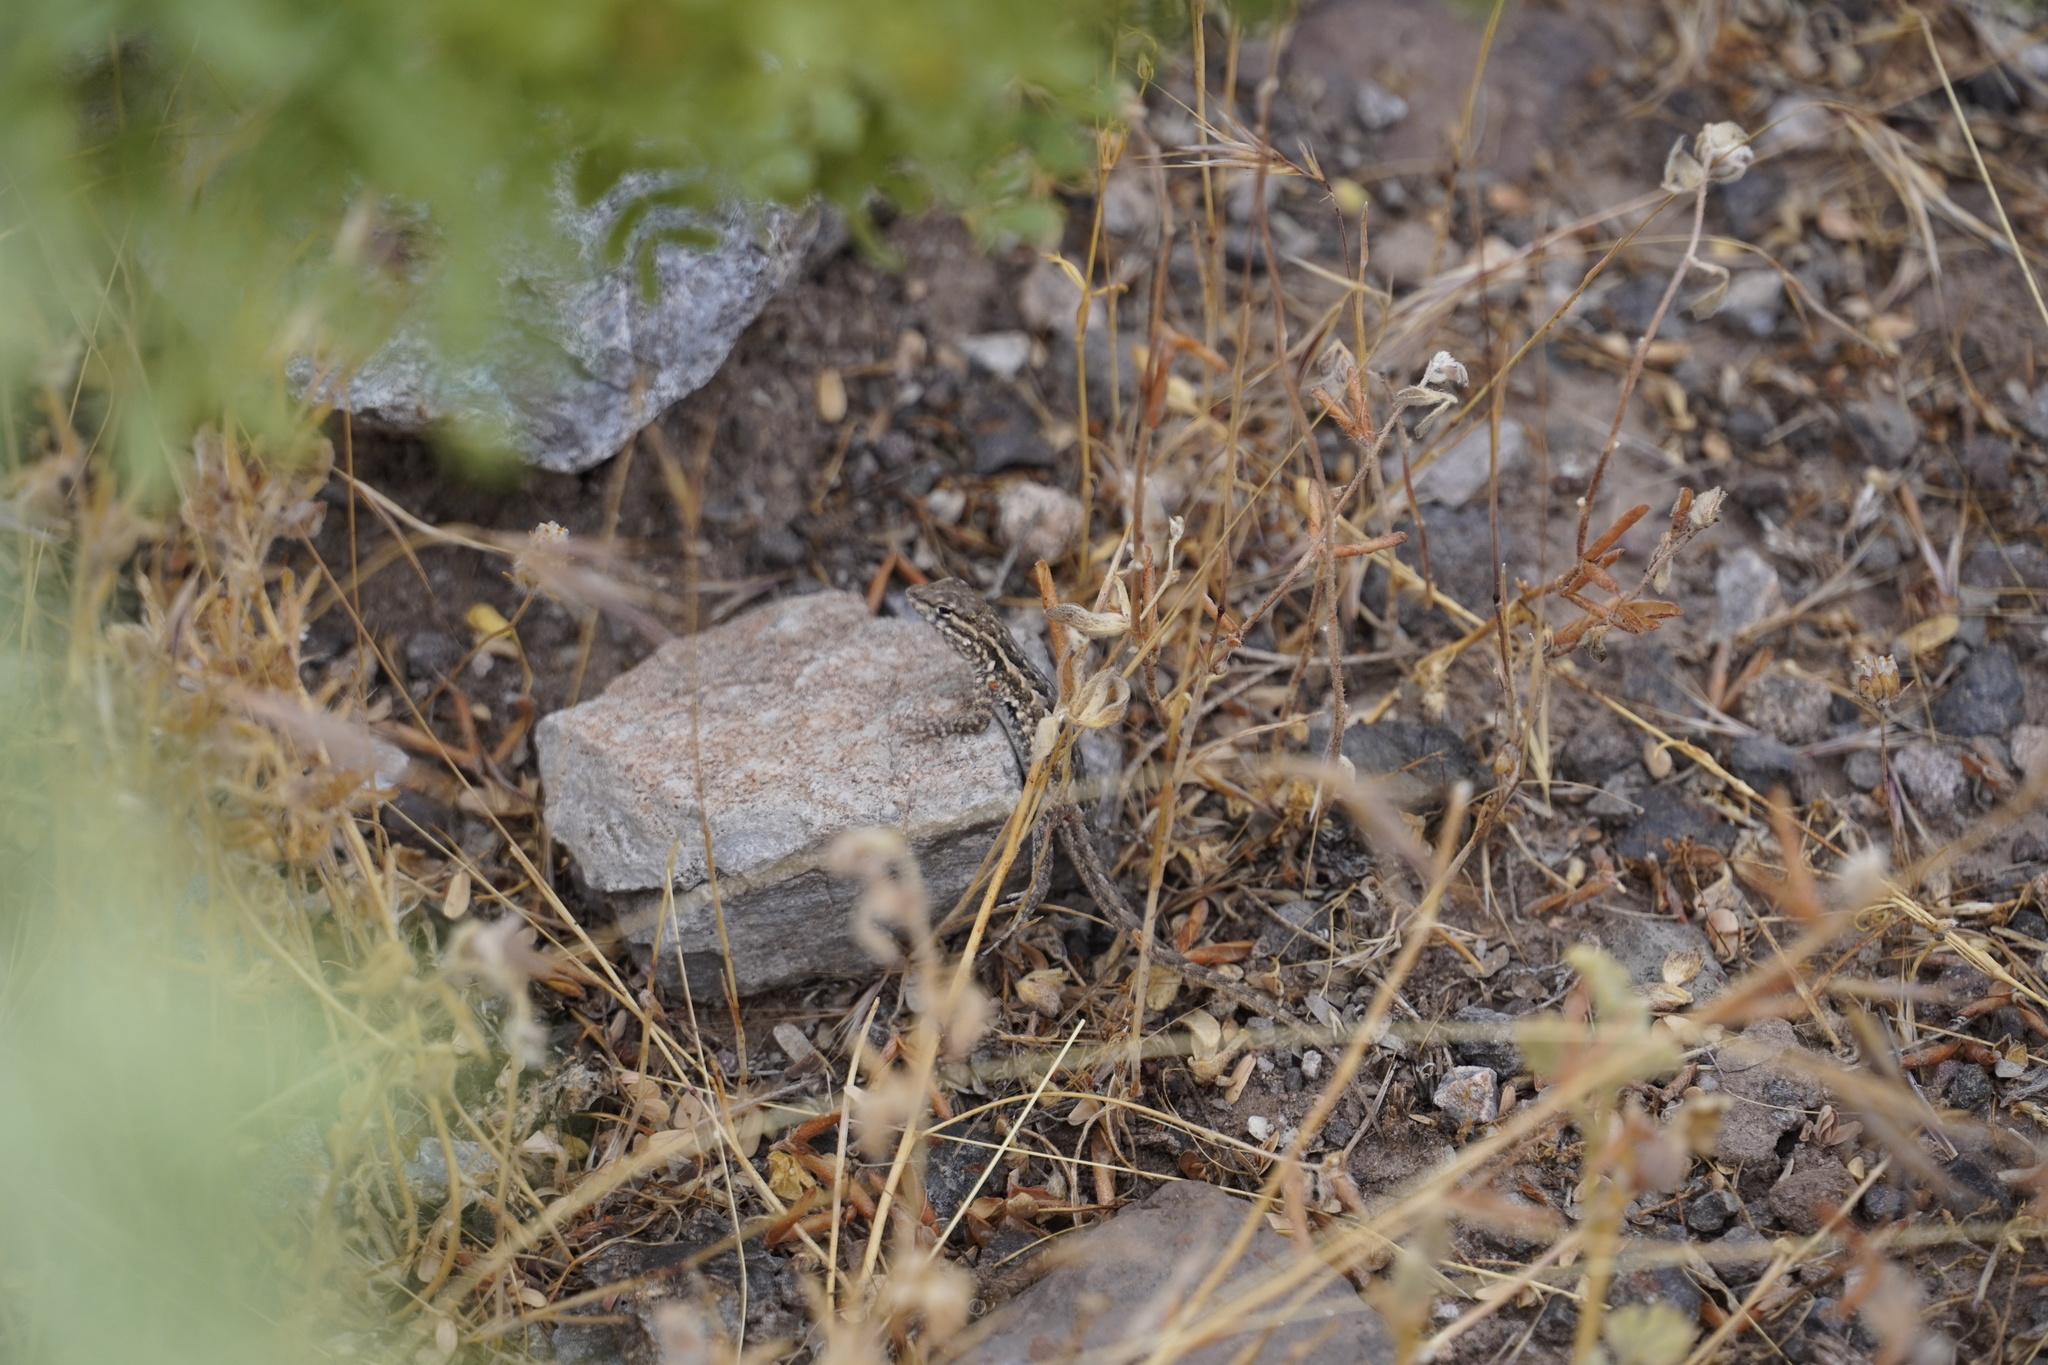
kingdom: Animalia
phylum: Chordata
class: Squamata
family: Phrynosomatidae
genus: Uta
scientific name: Uta stansburiana
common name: Side-blotched lizard
